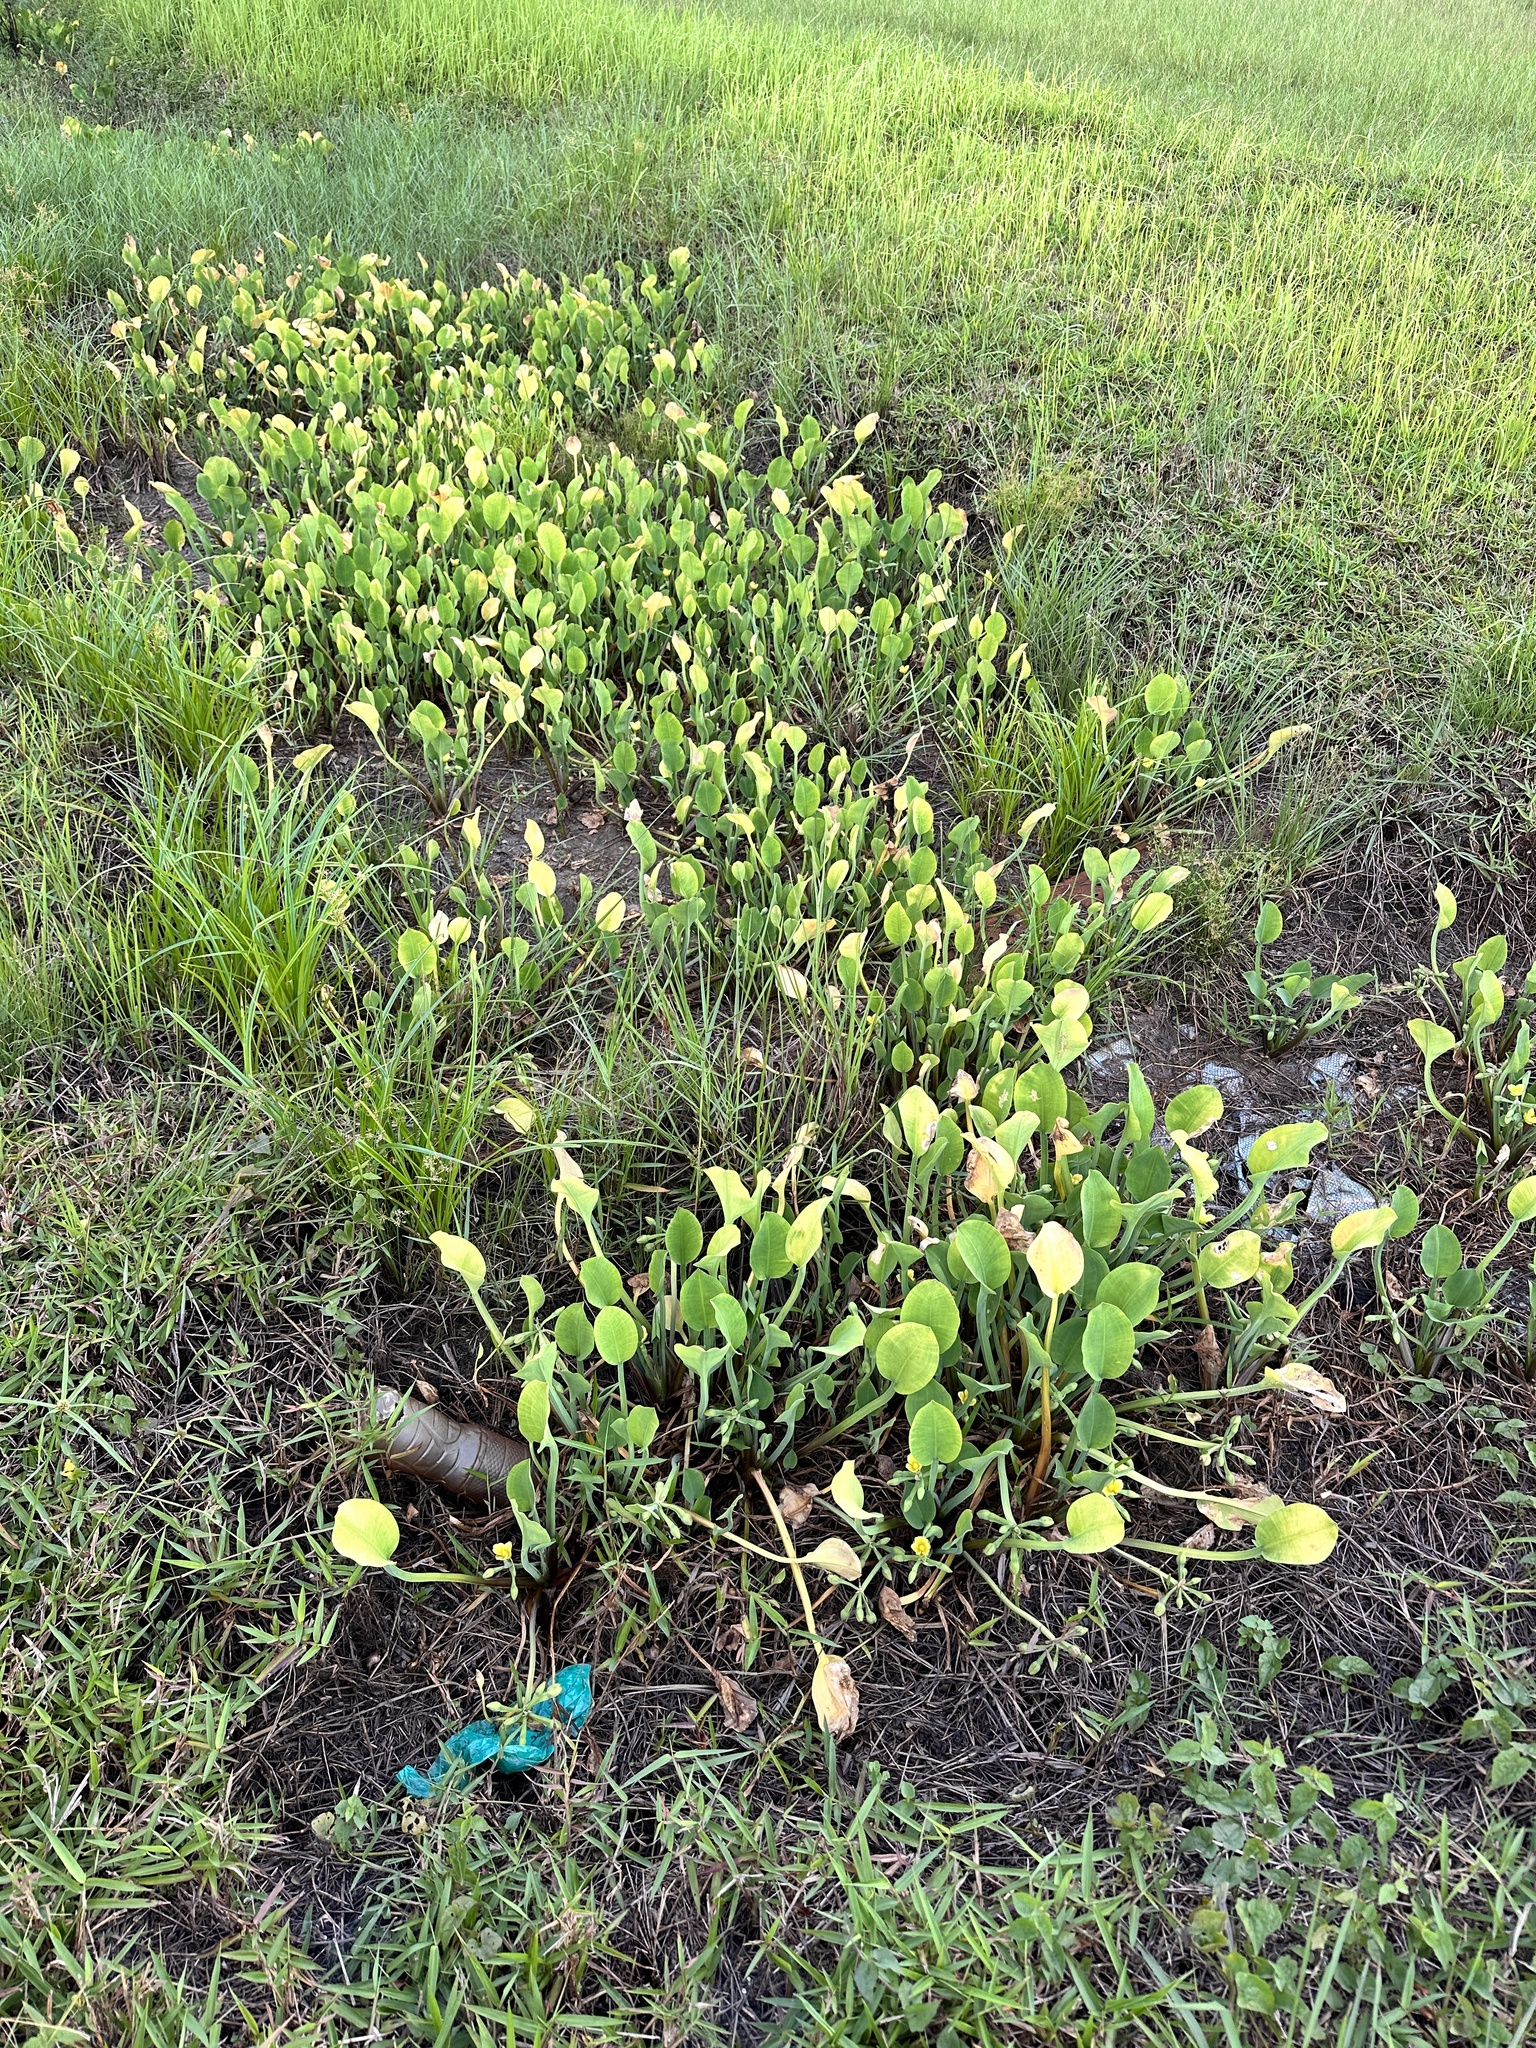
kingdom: Plantae
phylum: Tracheophyta
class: Liliopsida
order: Alismatales
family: Alismataceae
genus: Limnocharis
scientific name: Limnocharis flava
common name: Sawah-flower-rush
